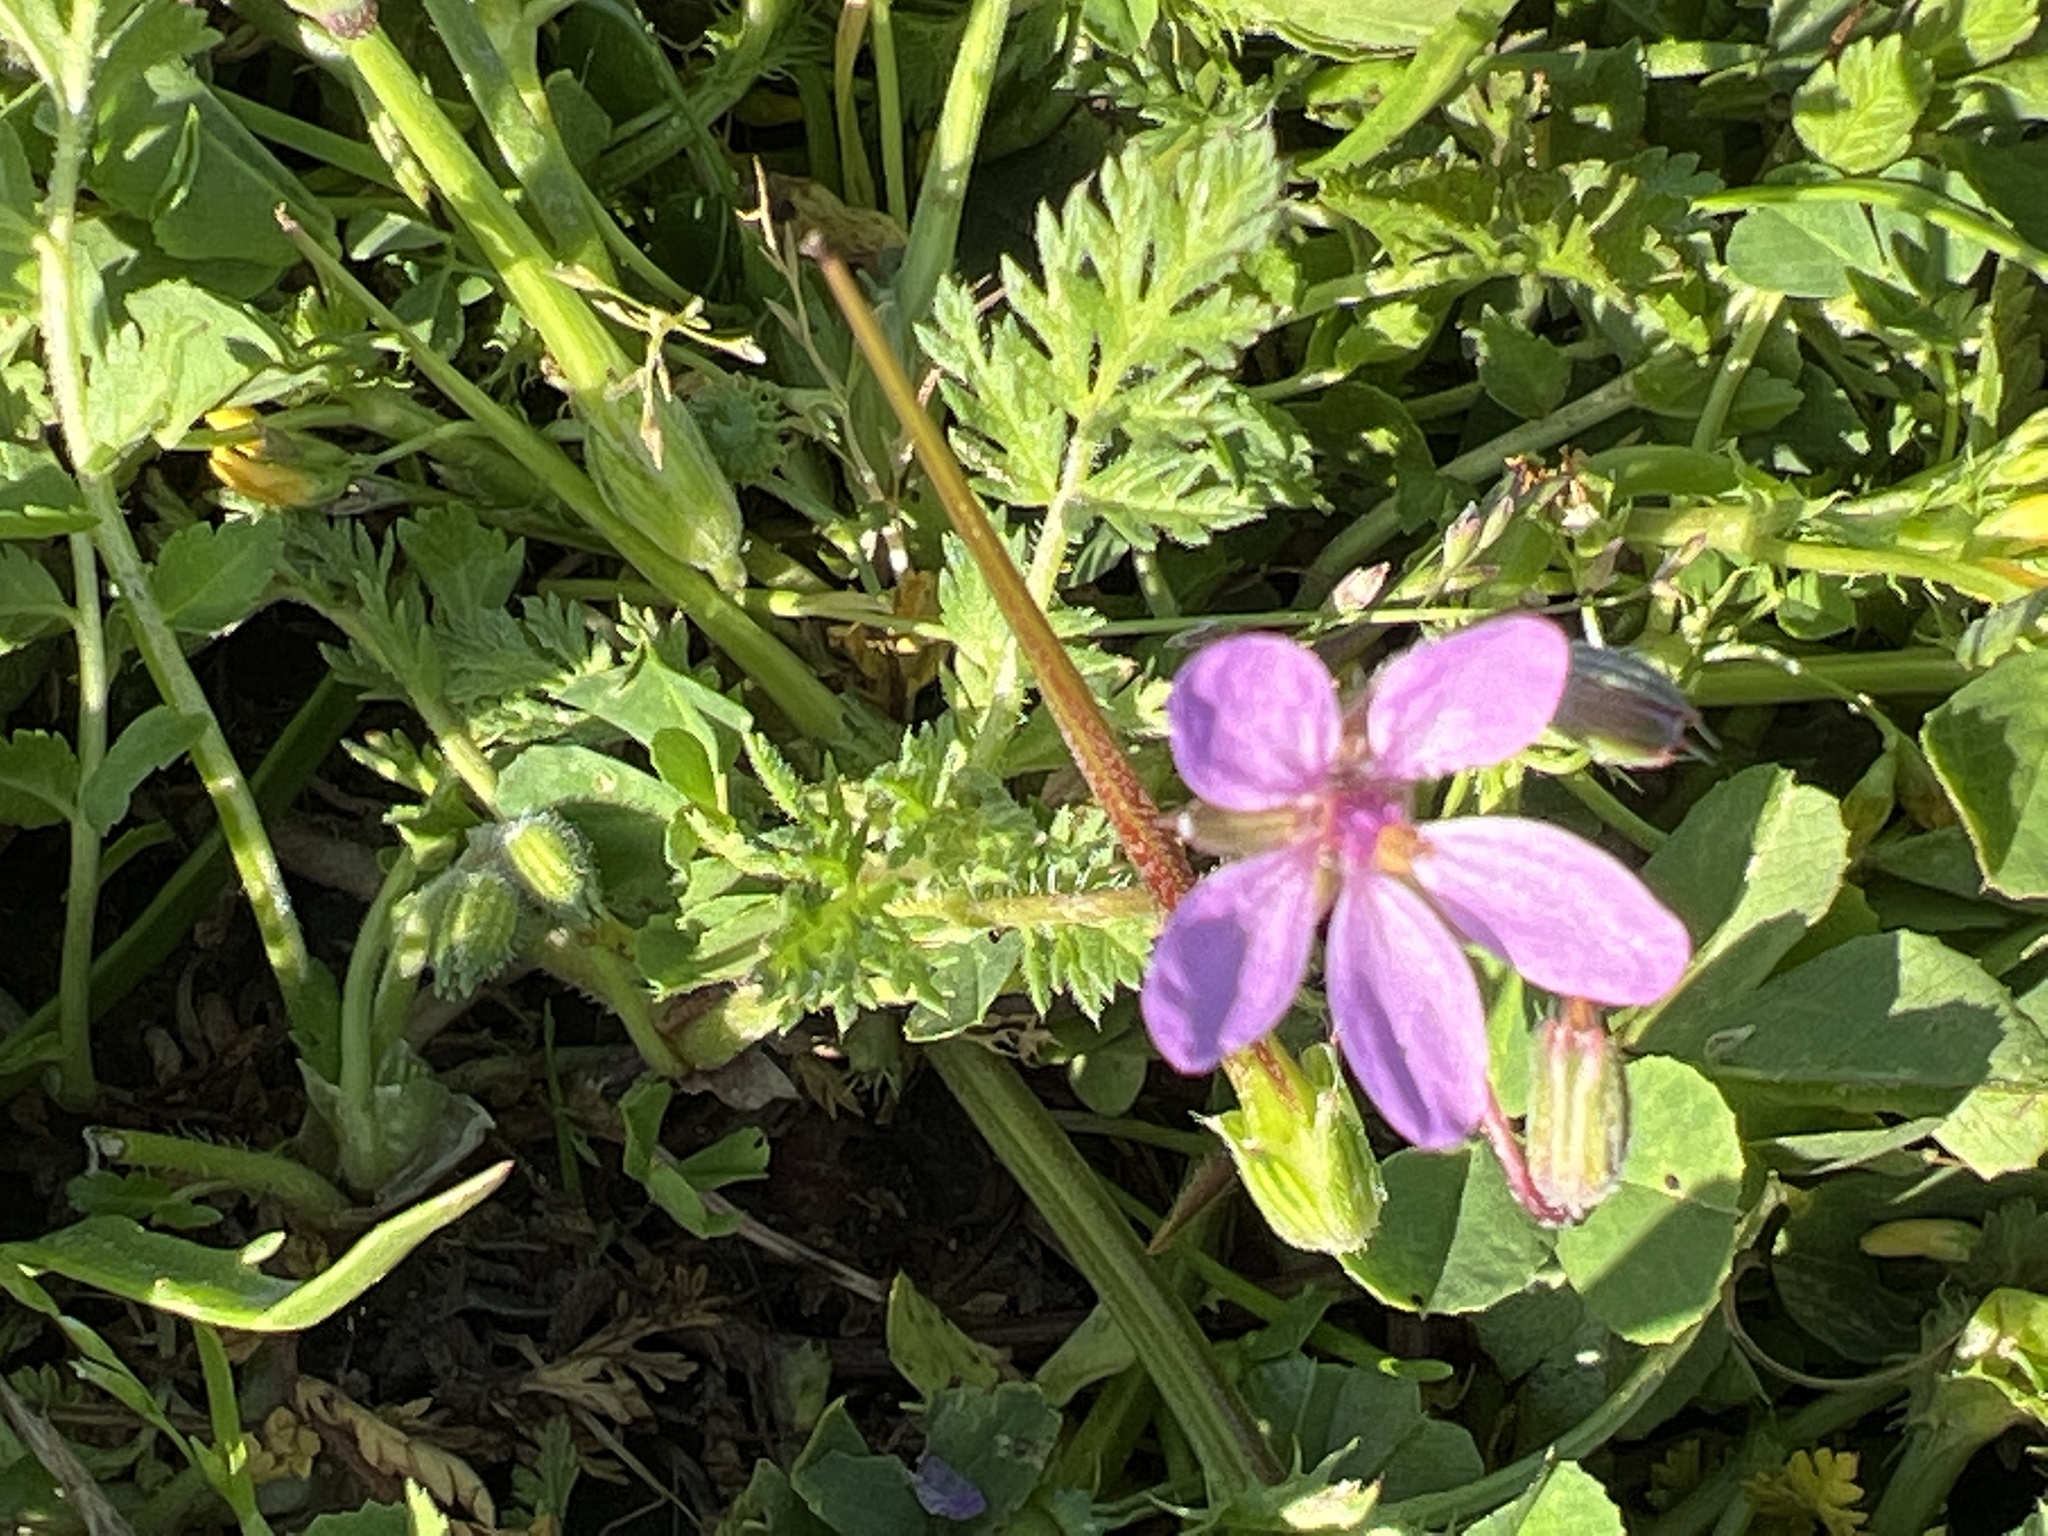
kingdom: Plantae
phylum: Tracheophyta
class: Magnoliopsida
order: Geraniales
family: Geraniaceae
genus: Erodium
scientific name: Erodium cicutarium
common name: Common stork's-bill
